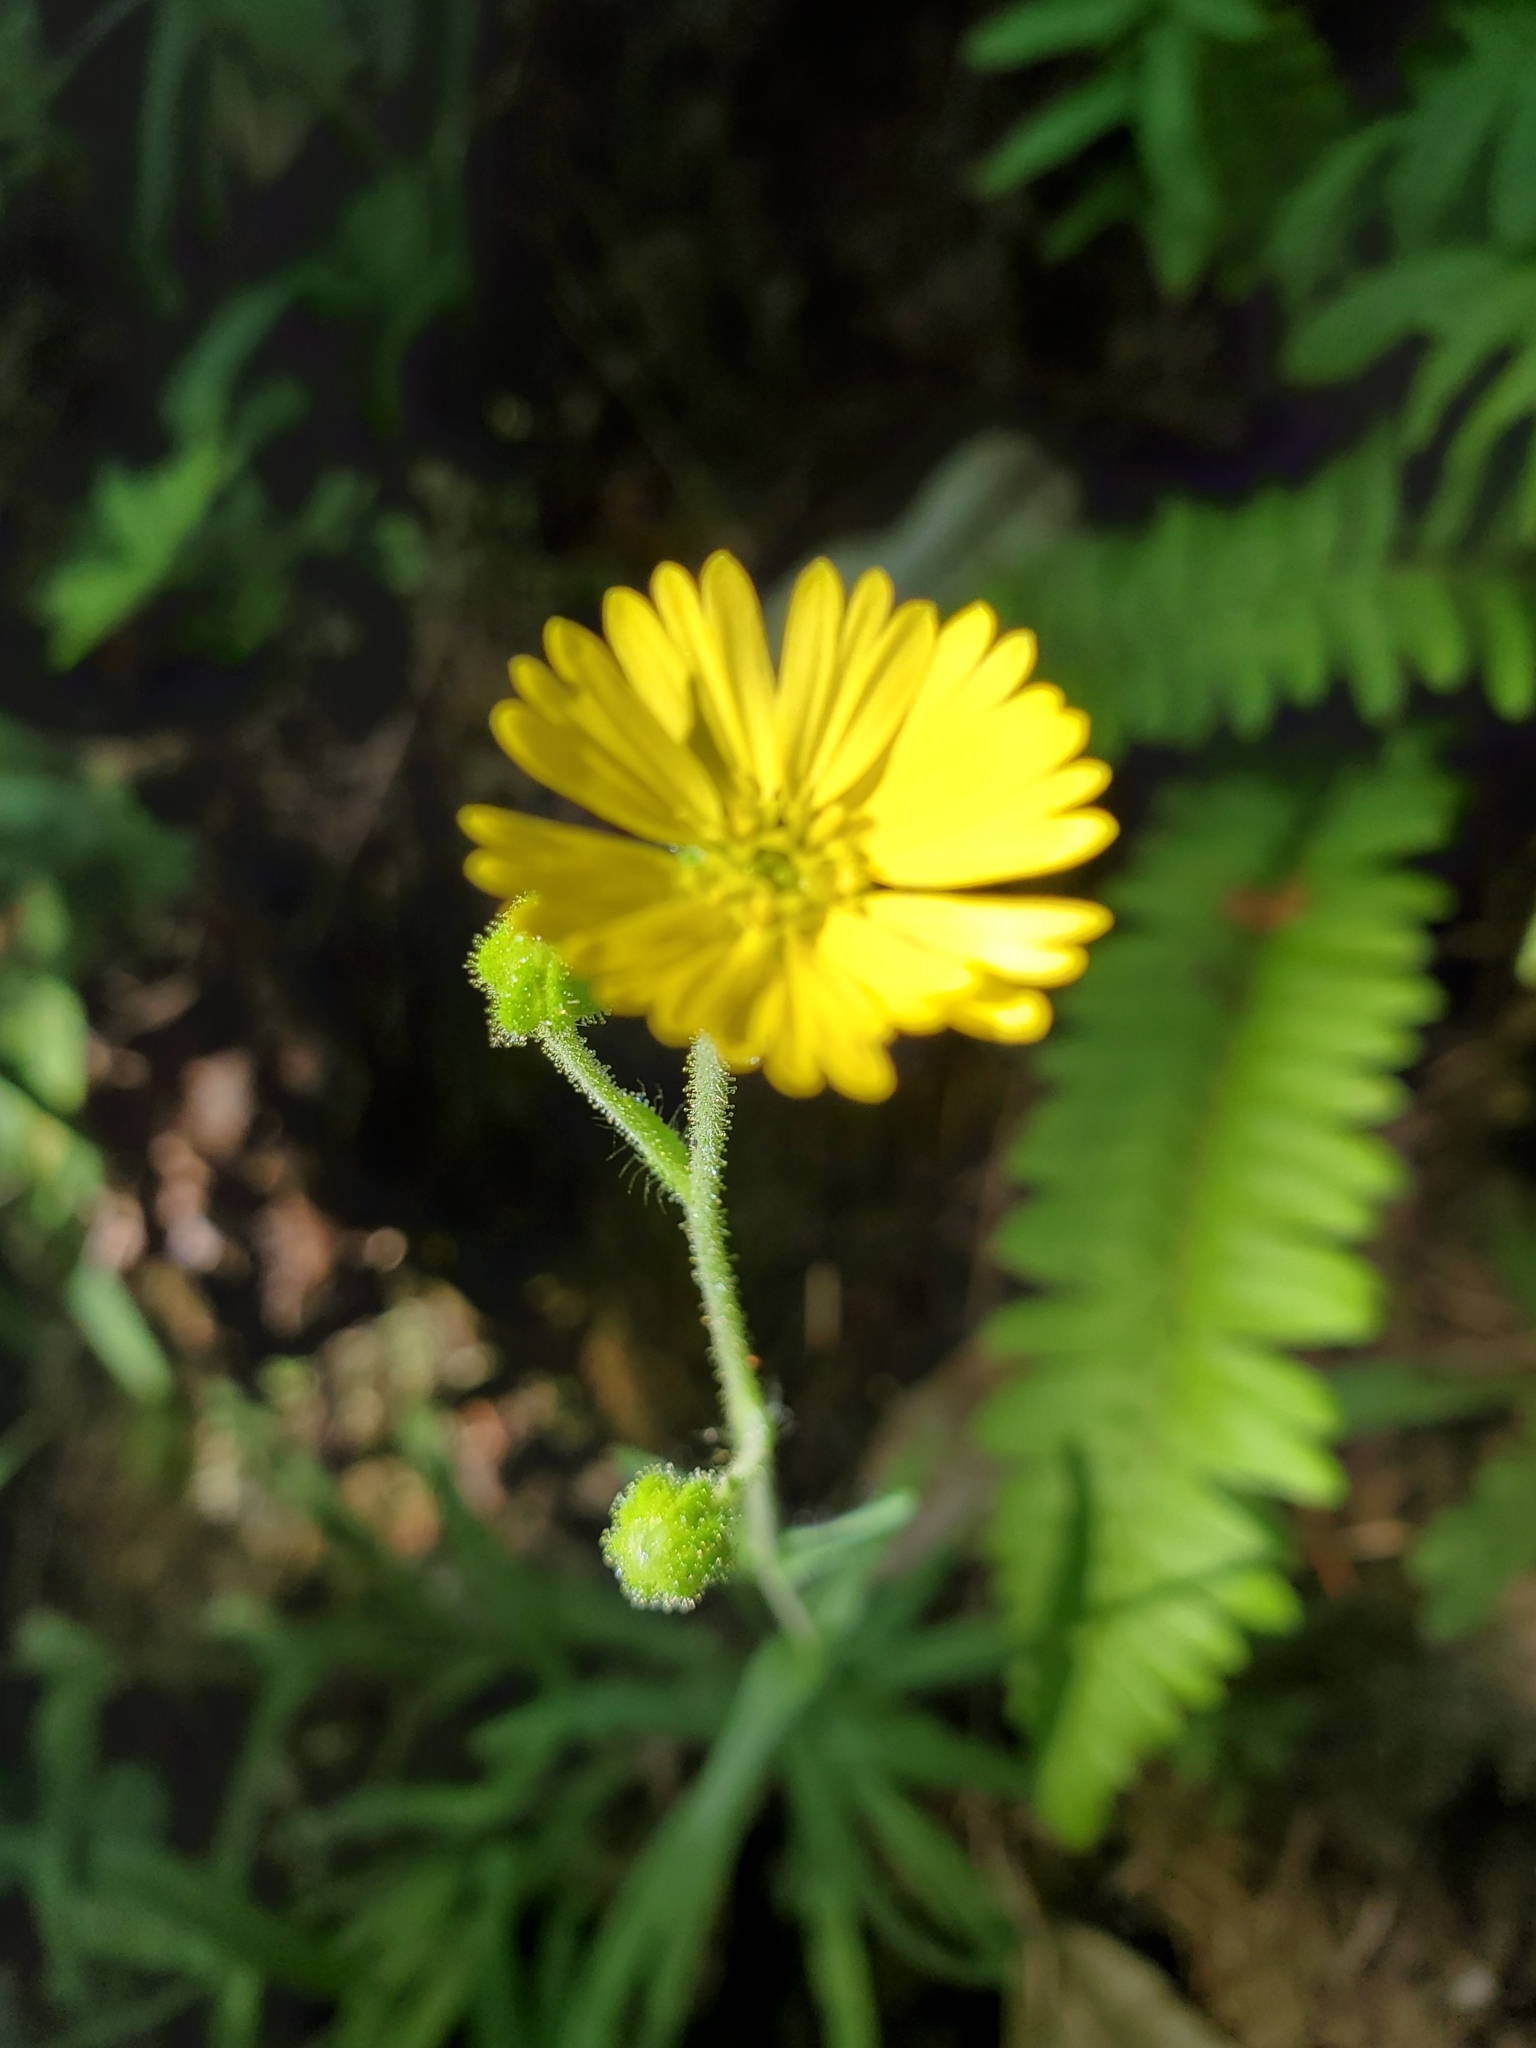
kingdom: Plantae
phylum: Tracheophyta
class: Magnoliopsida
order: Asterales
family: Asteraceae
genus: Anisocarpus
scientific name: Anisocarpus madioides
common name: Woodland madia
